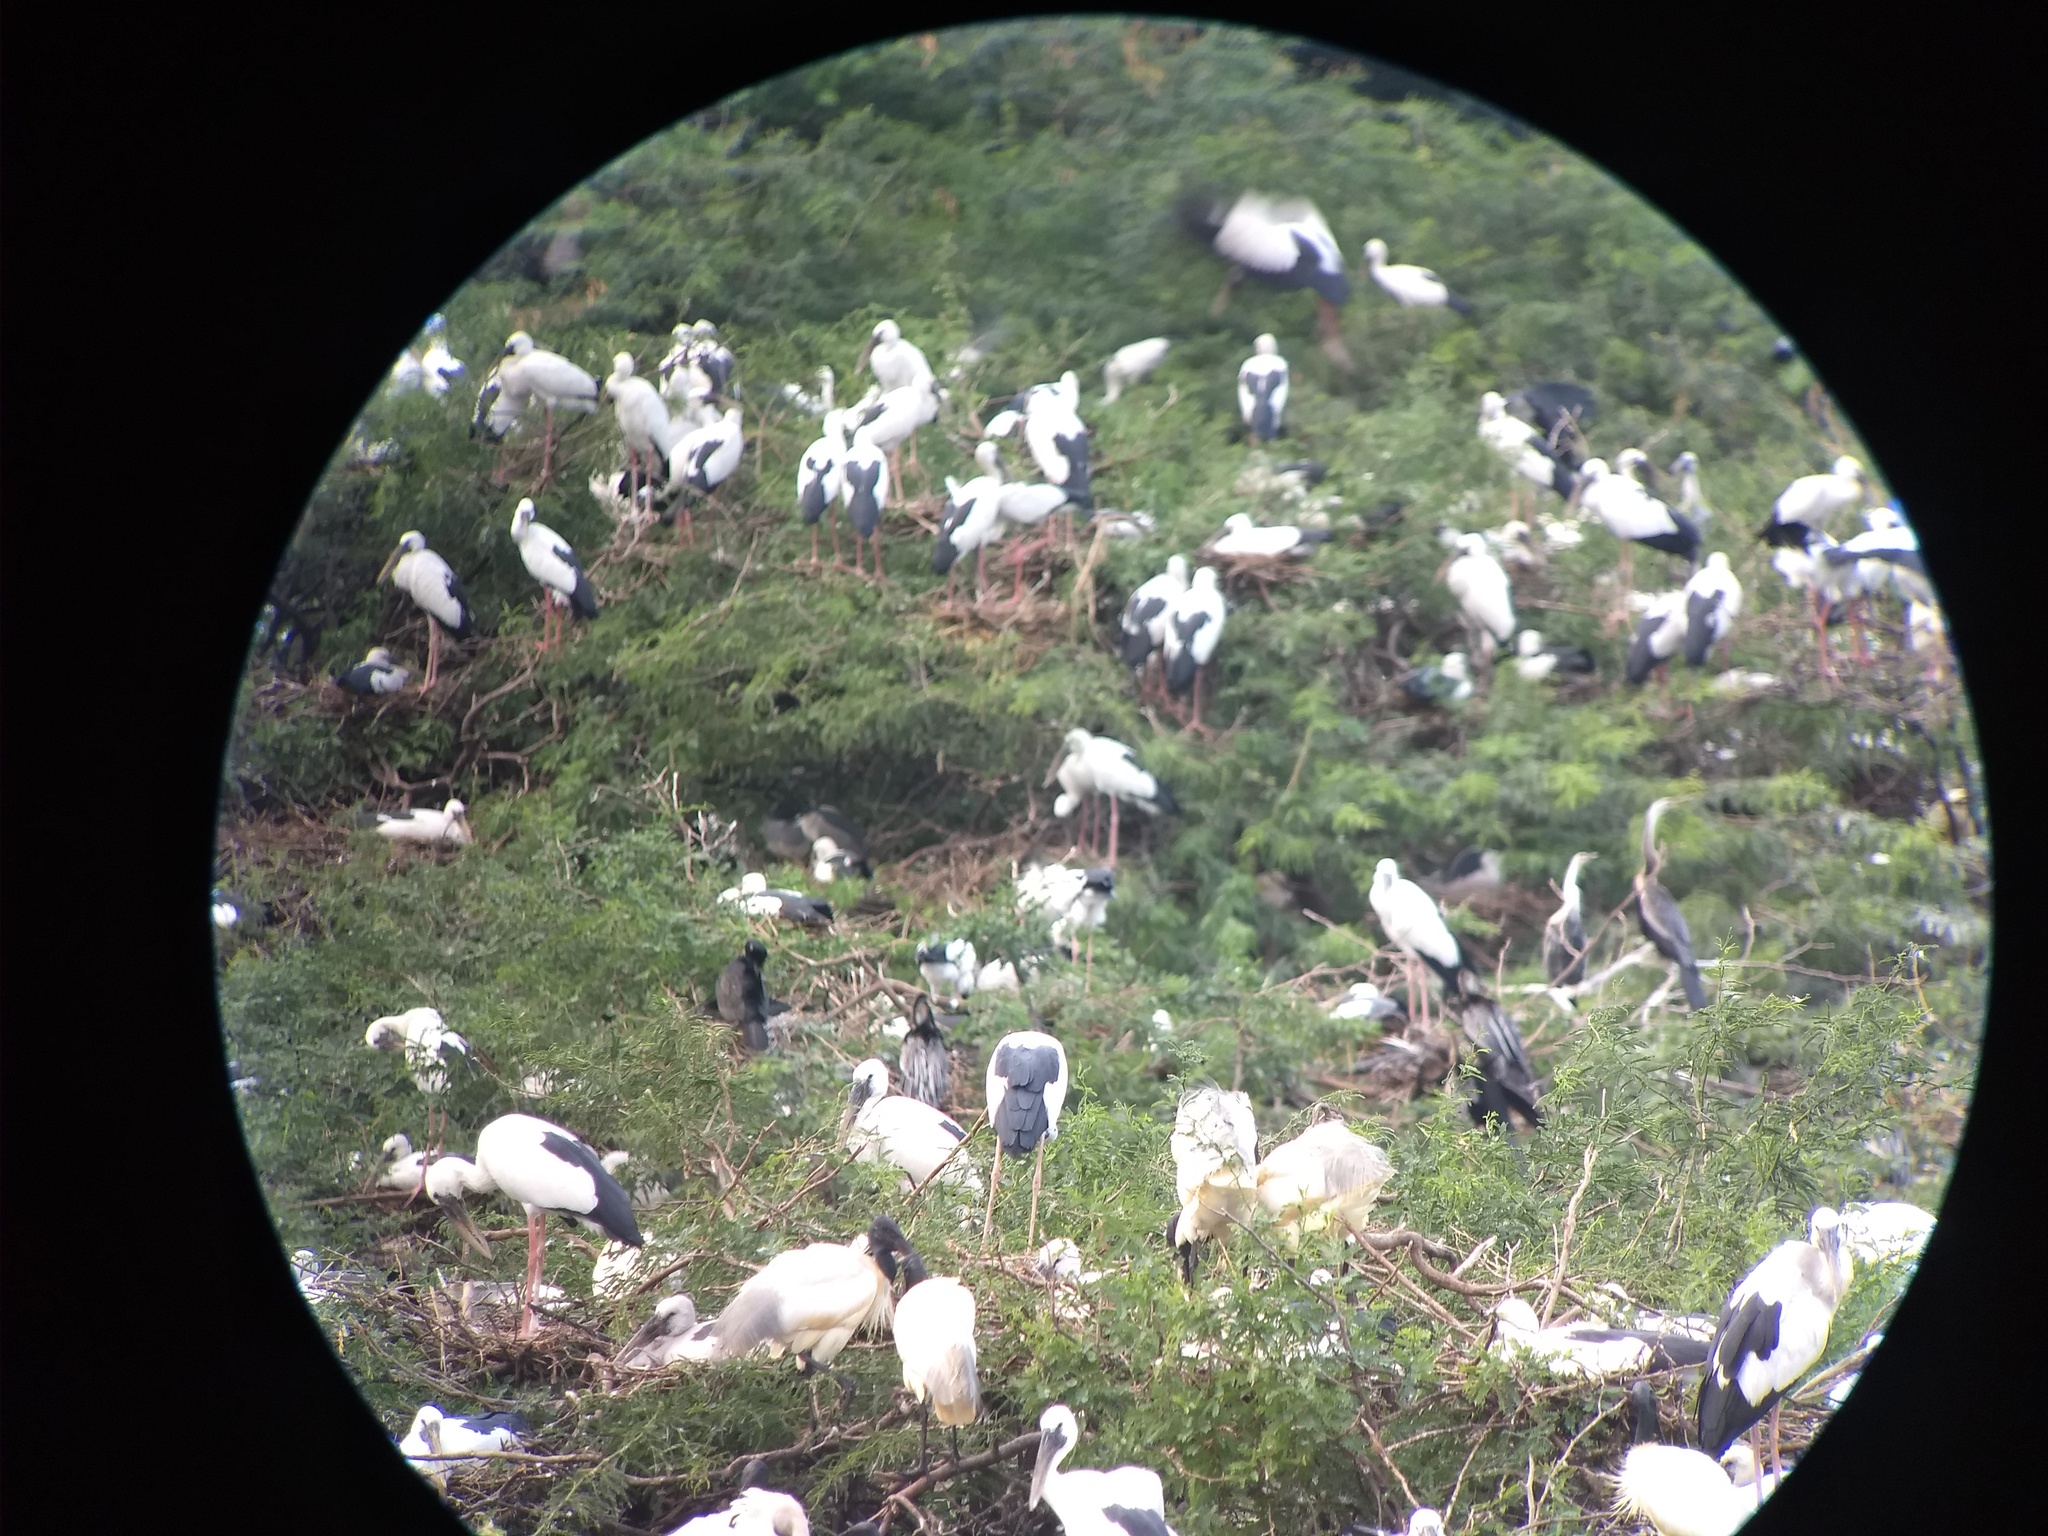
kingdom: Animalia
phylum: Chordata
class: Aves
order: Ciconiiformes
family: Ciconiidae
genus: Anastomus
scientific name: Anastomus oscitans
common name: Asian openbill
